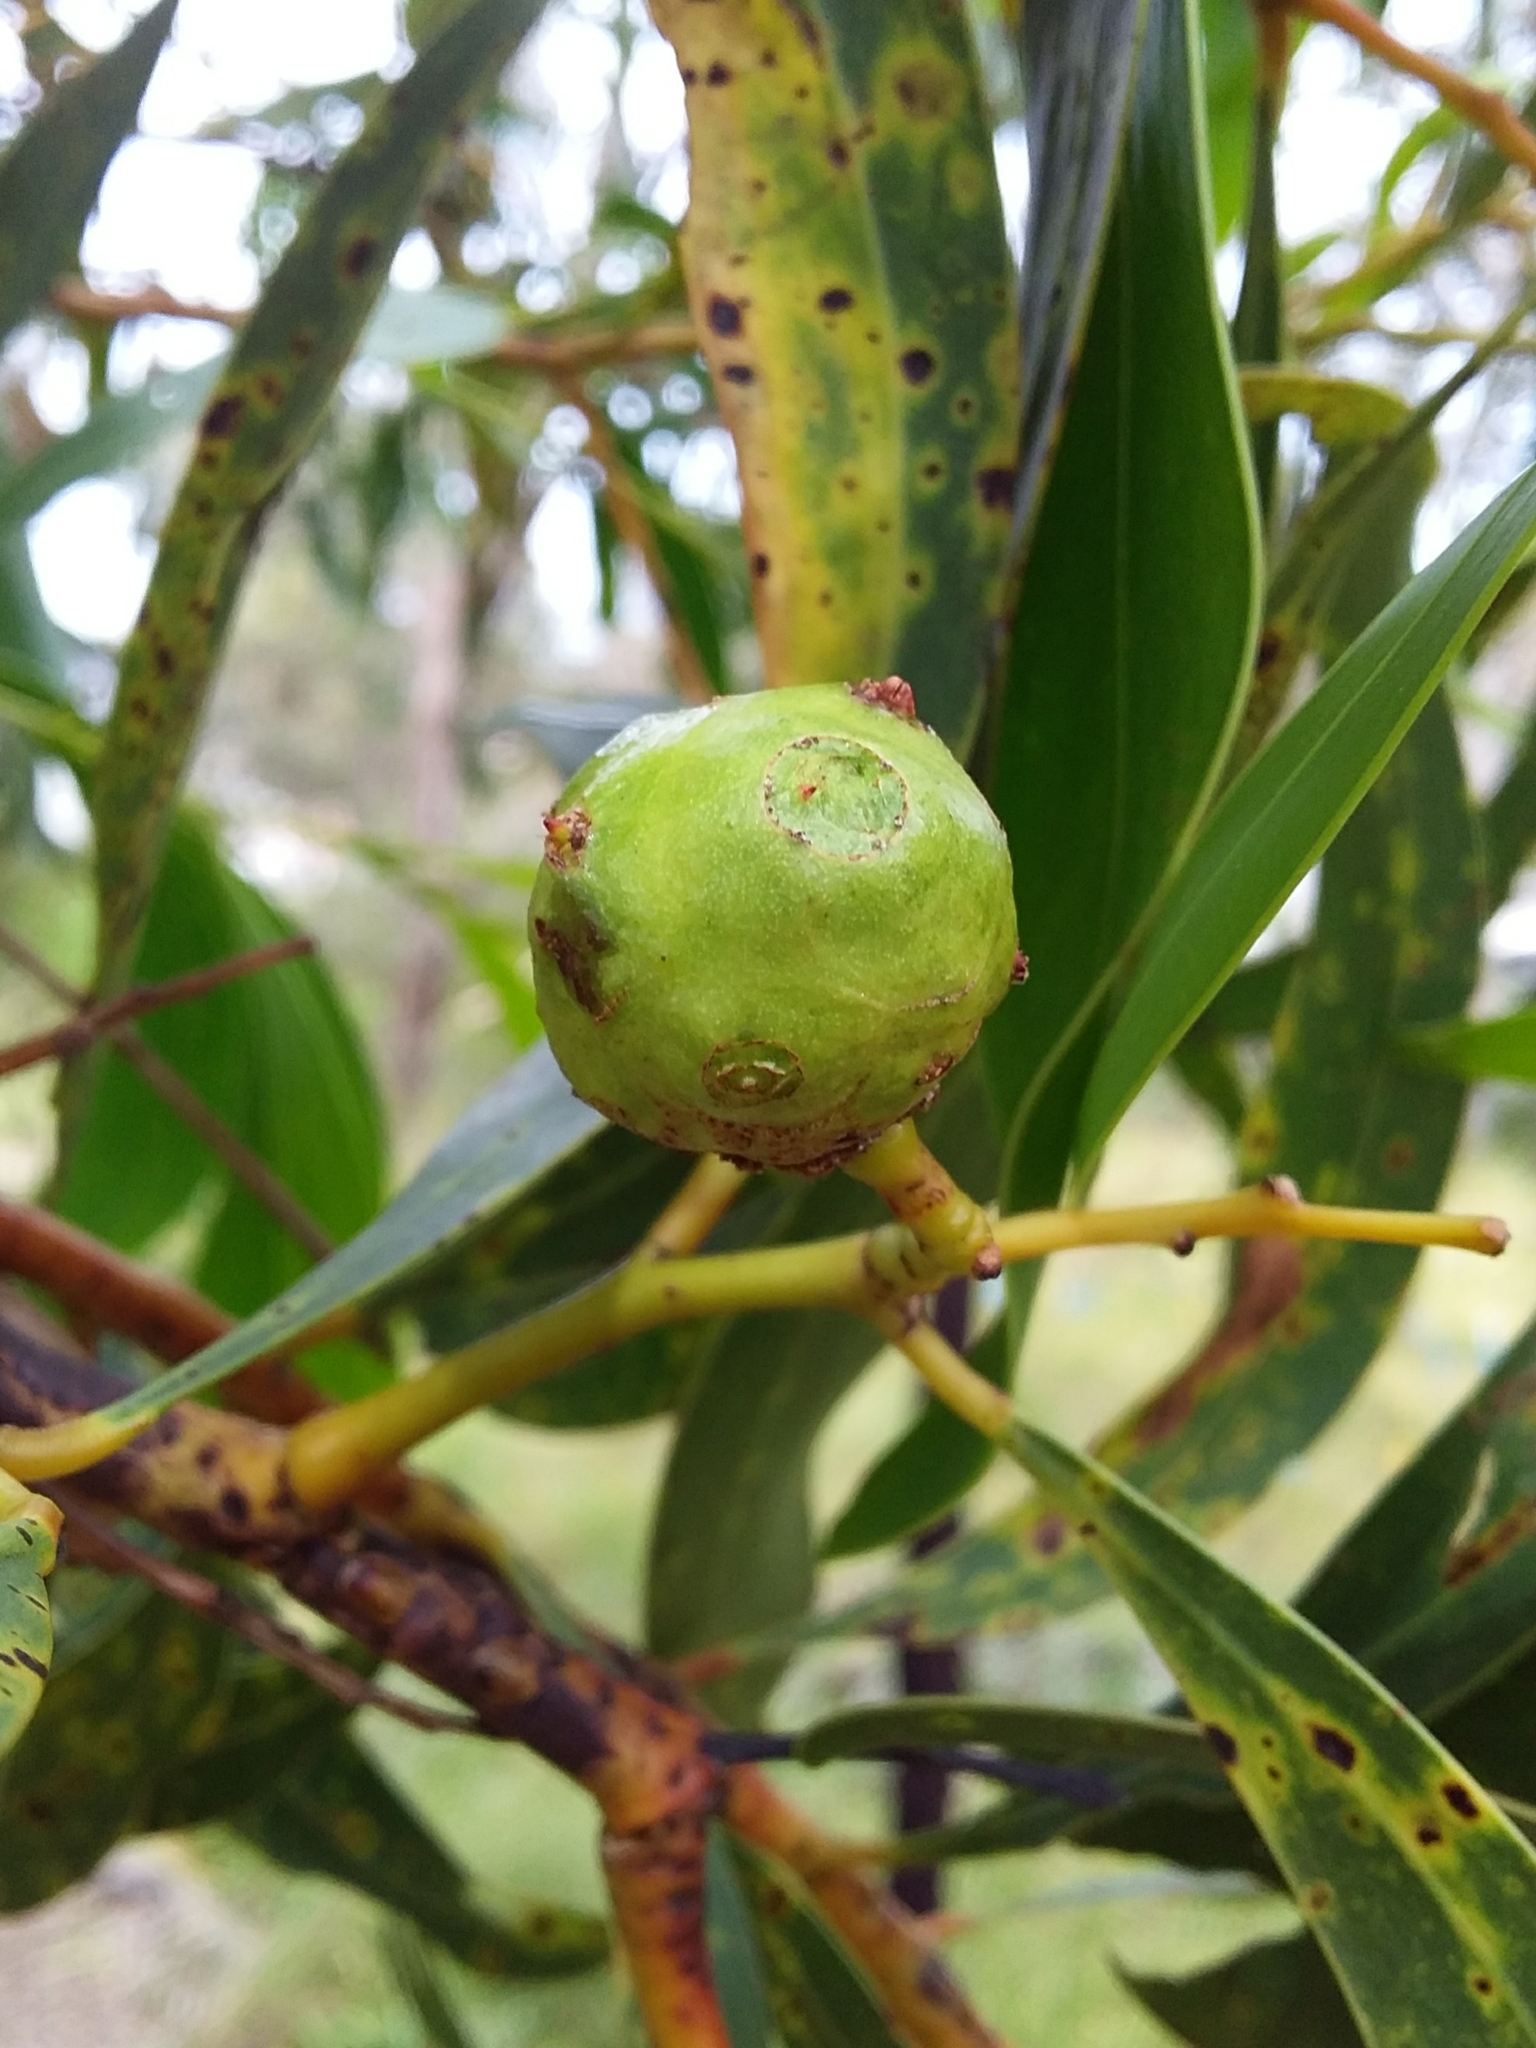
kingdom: Animalia
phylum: Arthropoda
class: Insecta
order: Hymenoptera
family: Pteromalidae
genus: Trichilogaster
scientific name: Trichilogaster signiventris
